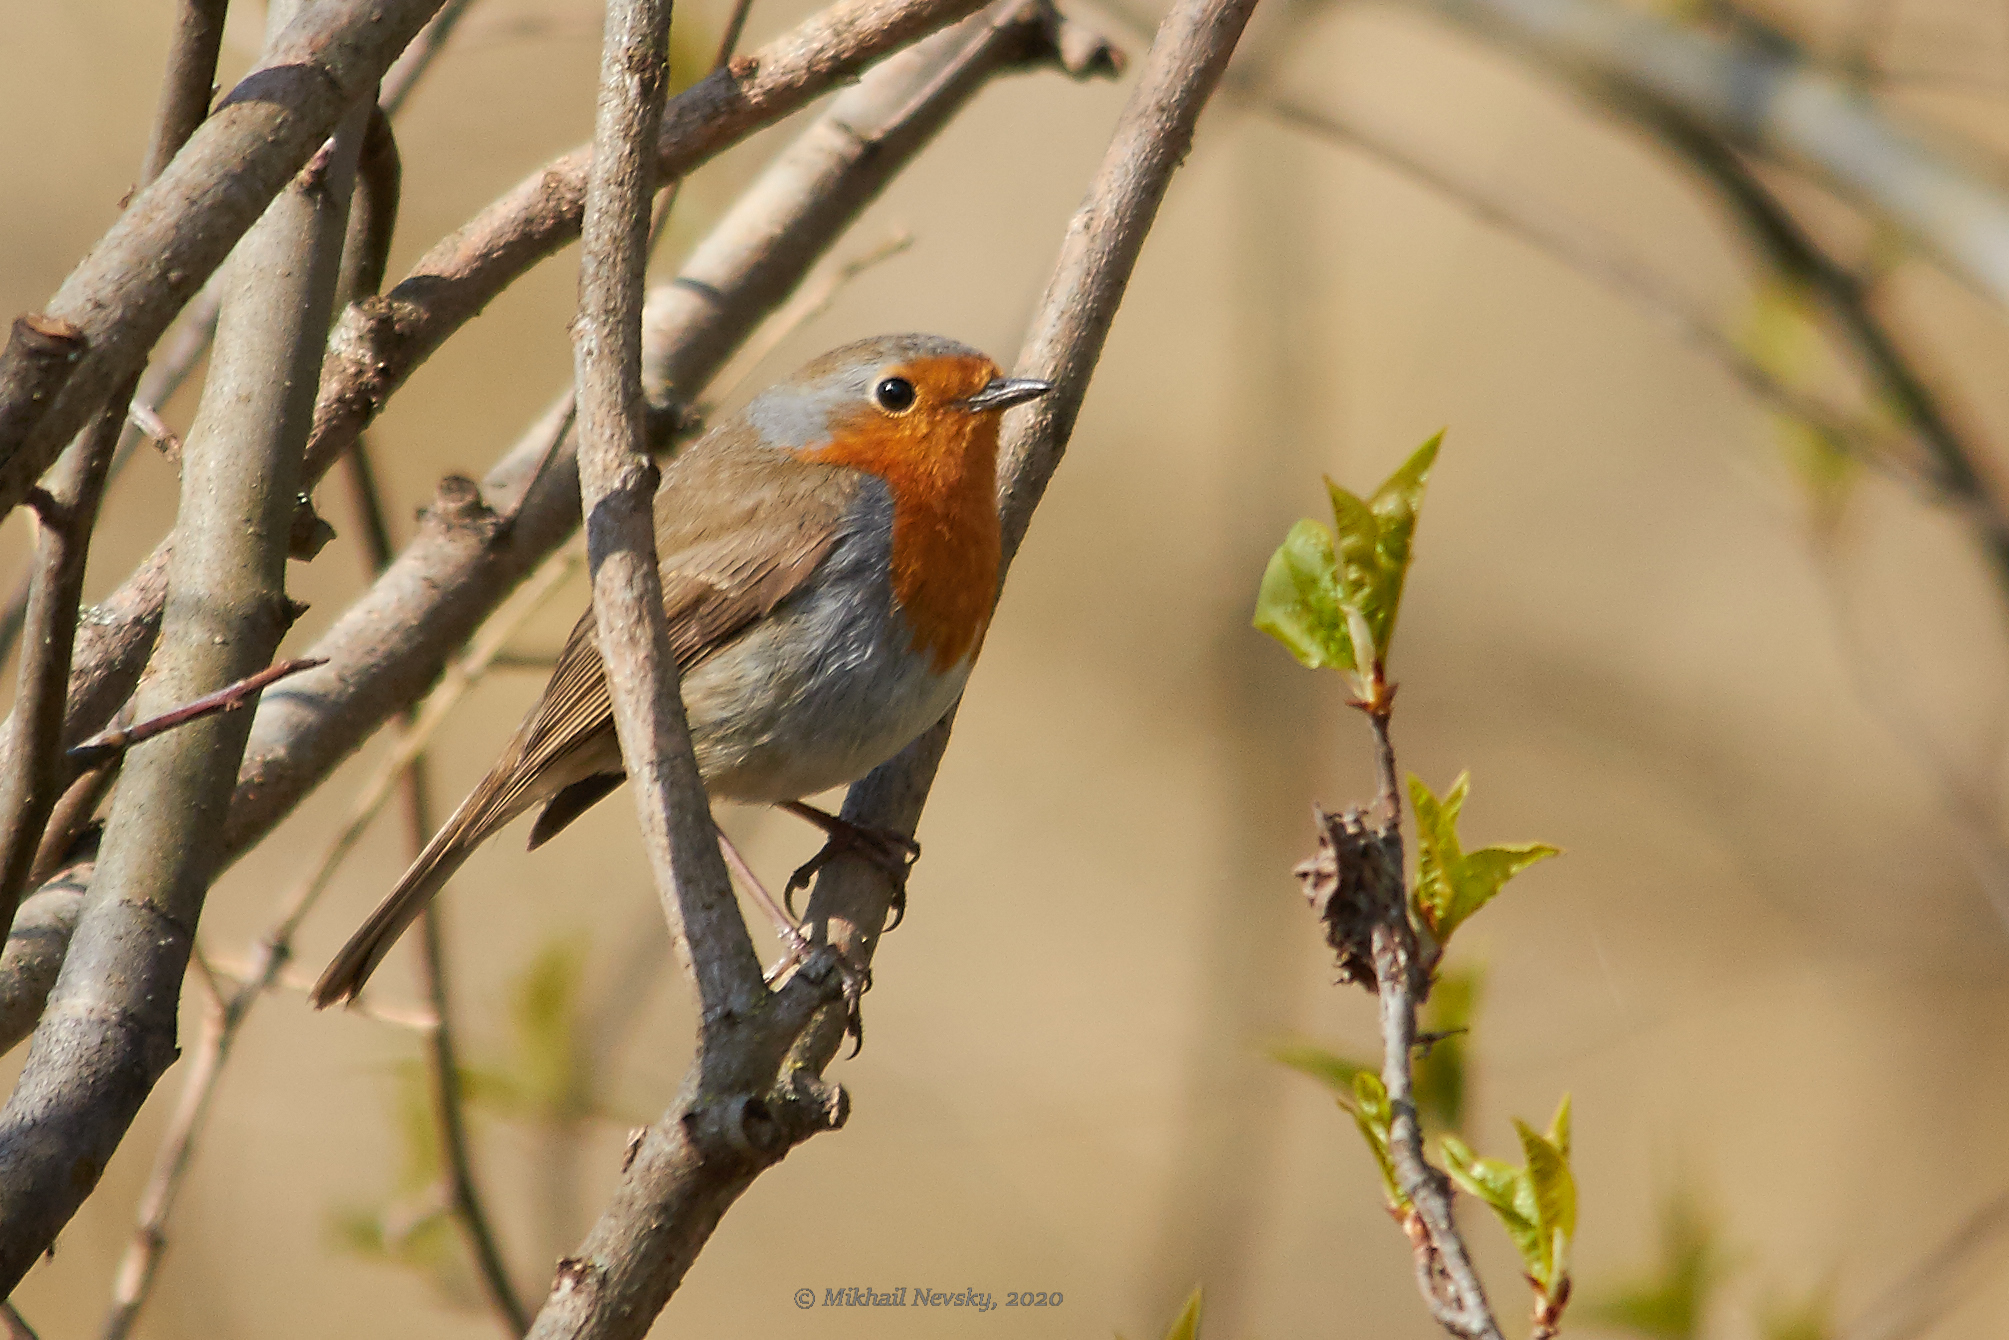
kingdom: Animalia
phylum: Chordata
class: Aves
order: Passeriformes
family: Muscicapidae
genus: Erithacus
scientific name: Erithacus rubecula
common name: European robin
